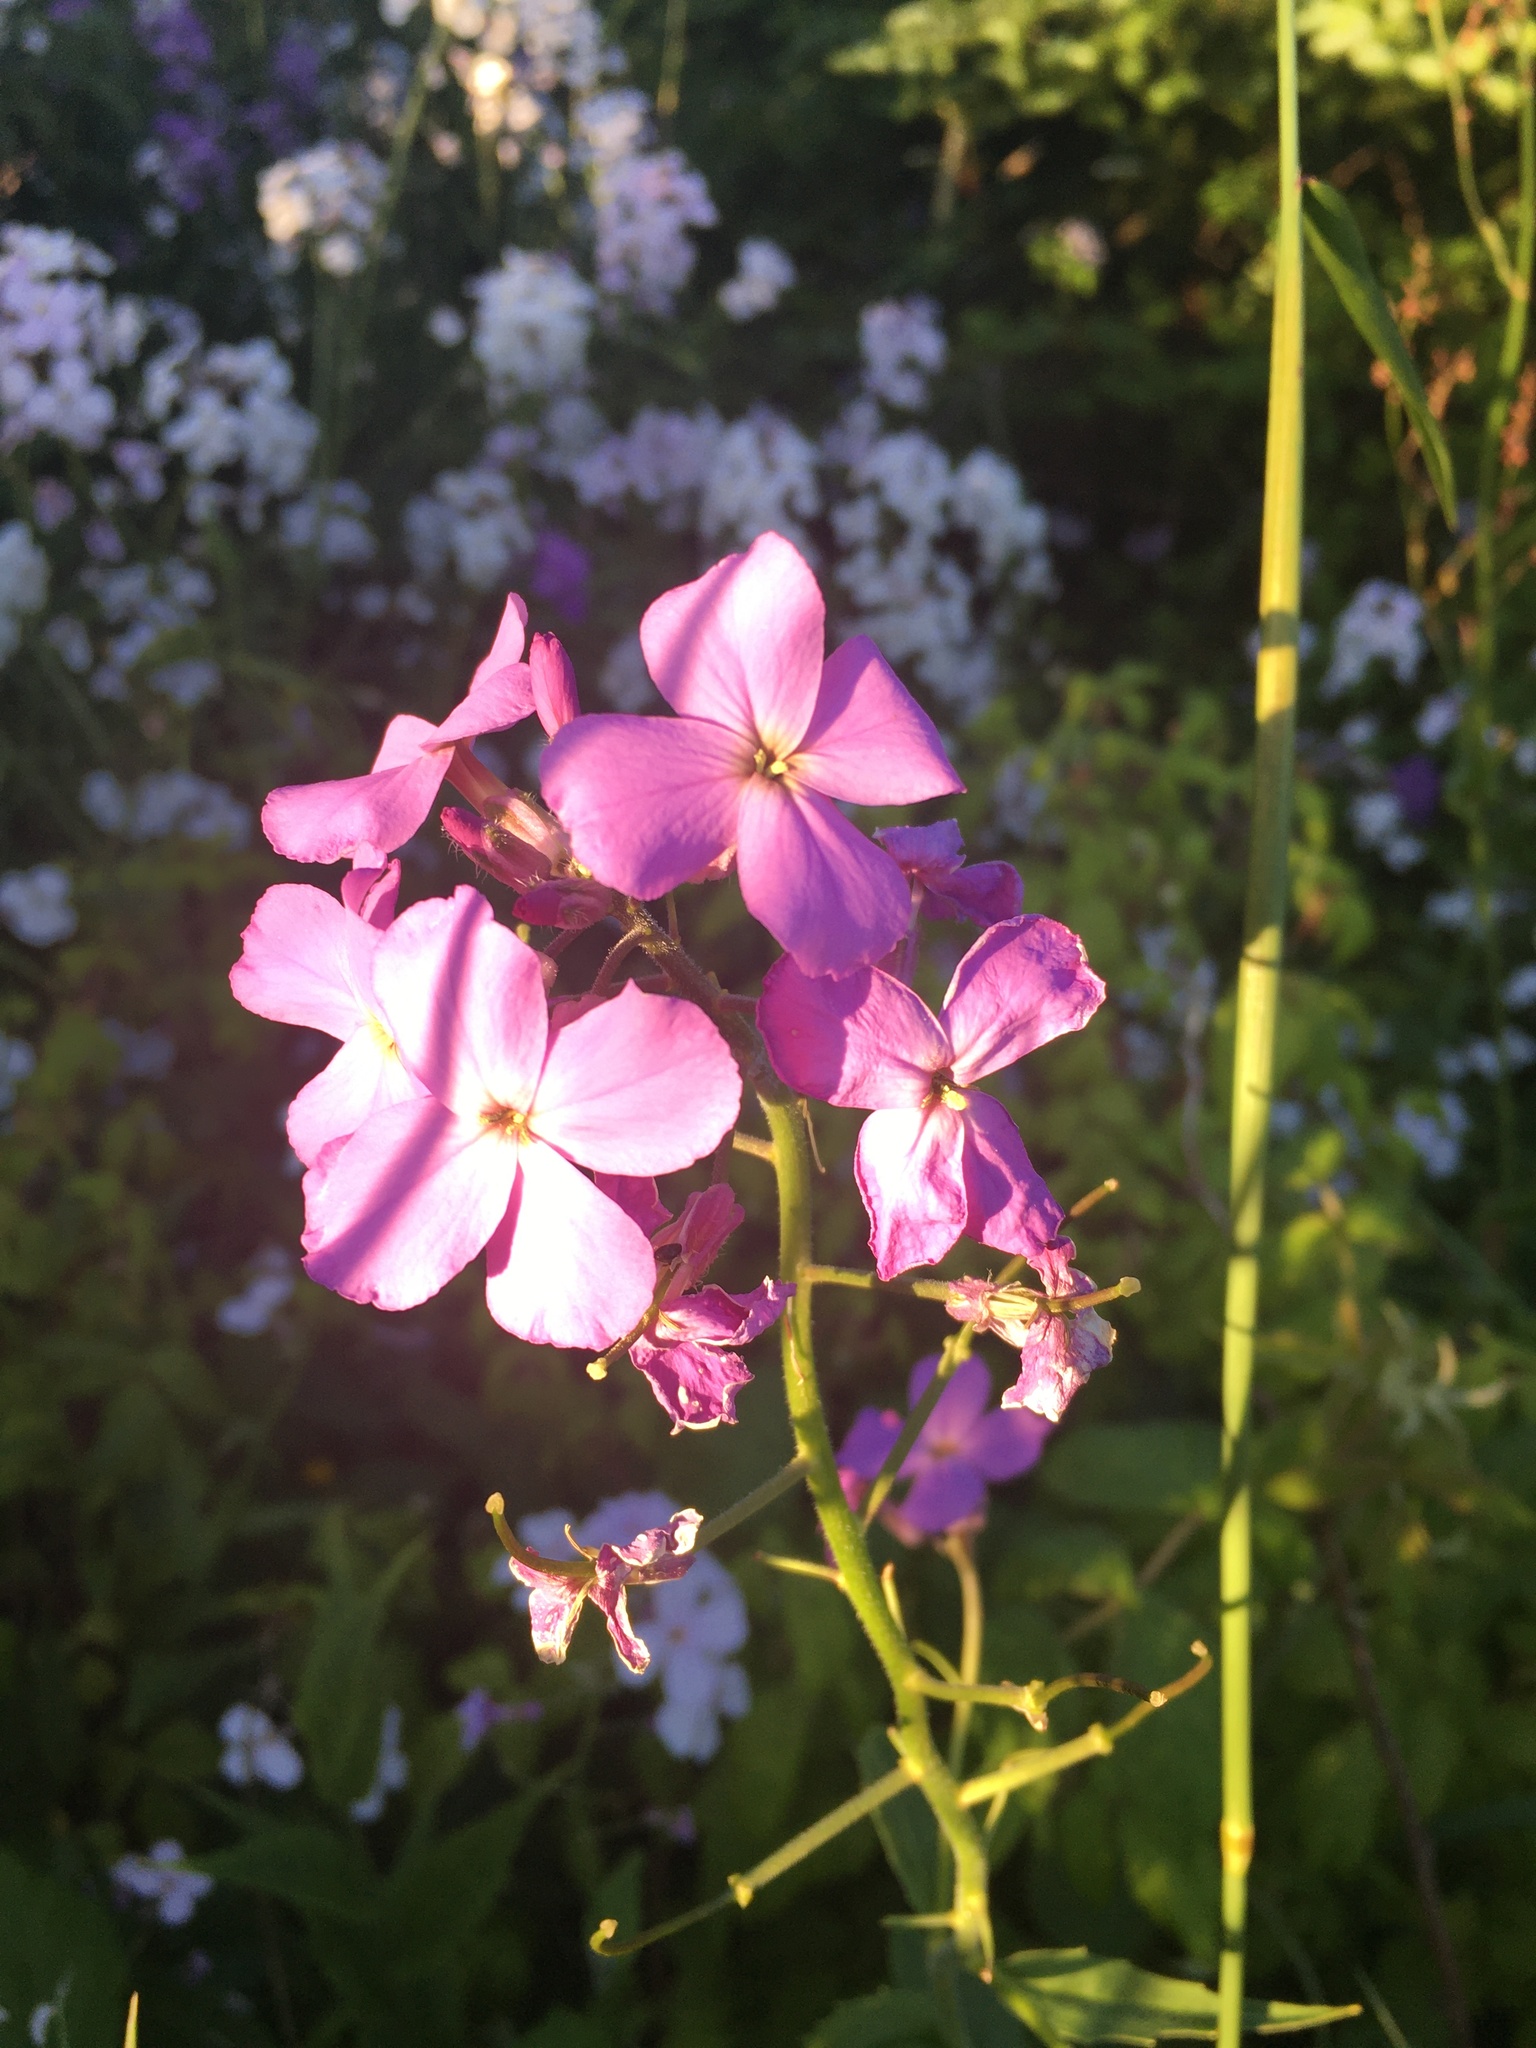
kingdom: Plantae
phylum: Tracheophyta
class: Magnoliopsida
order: Brassicales
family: Brassicaceae
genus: Hesperis
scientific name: Hesperis matronalis
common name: Dame's-violet
